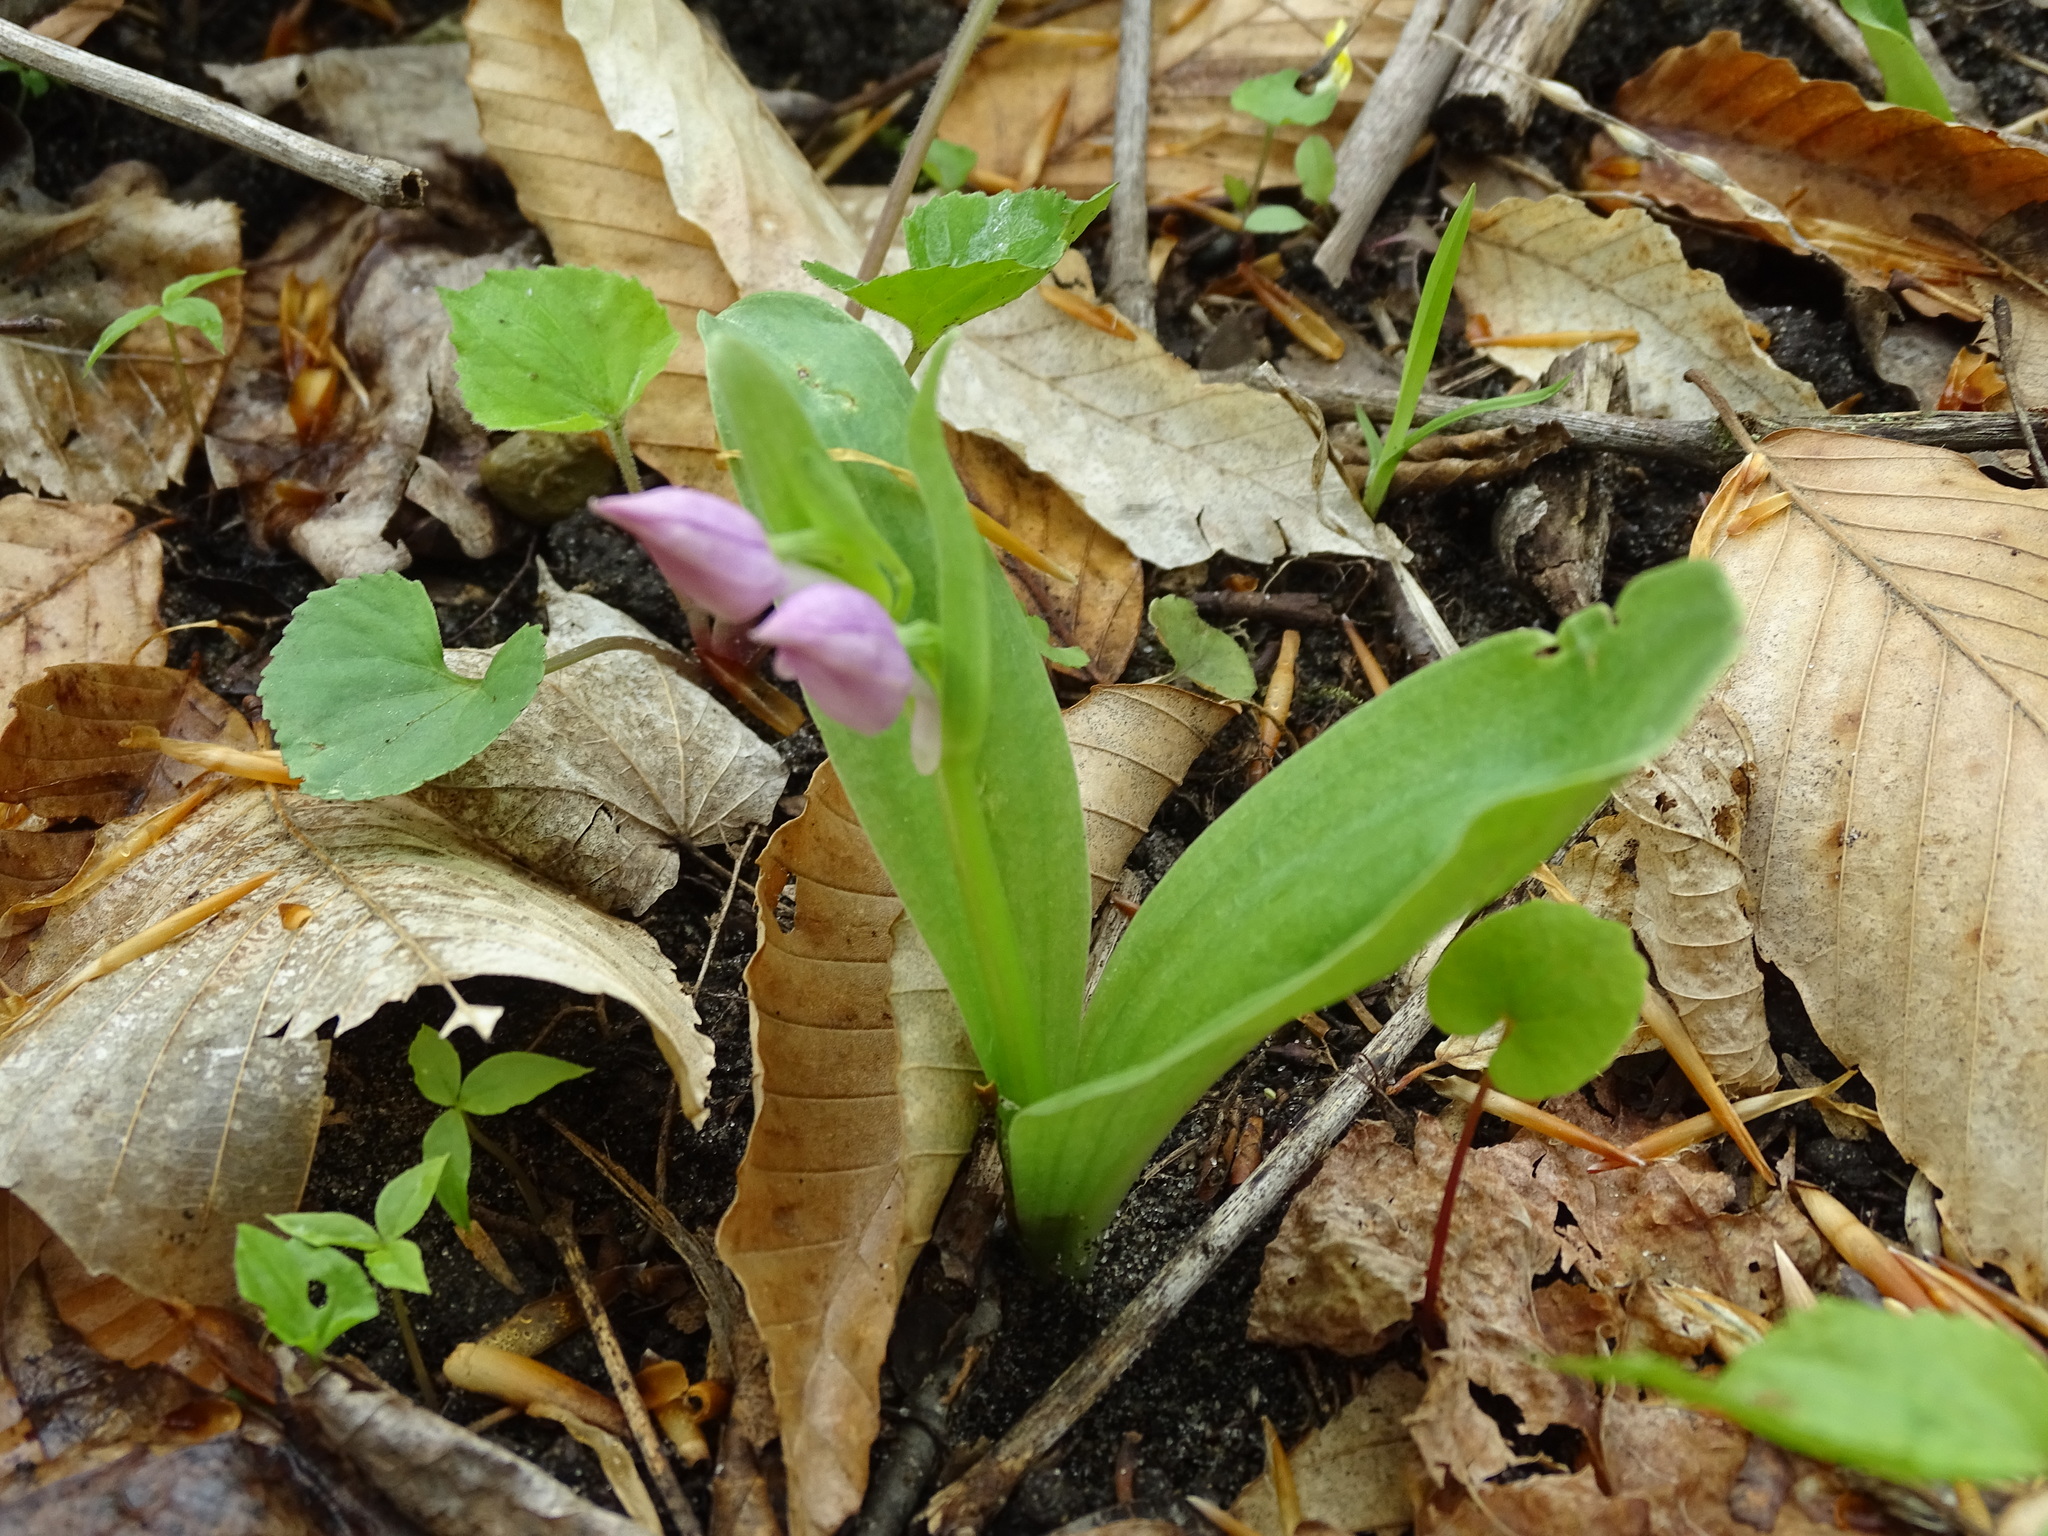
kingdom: Plantae
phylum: Tracheophyta
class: Liliopsida
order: Asparagales
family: Orchidaceae
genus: Galearis
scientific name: Galearis spectabilis
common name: Purple-hooded orchis
